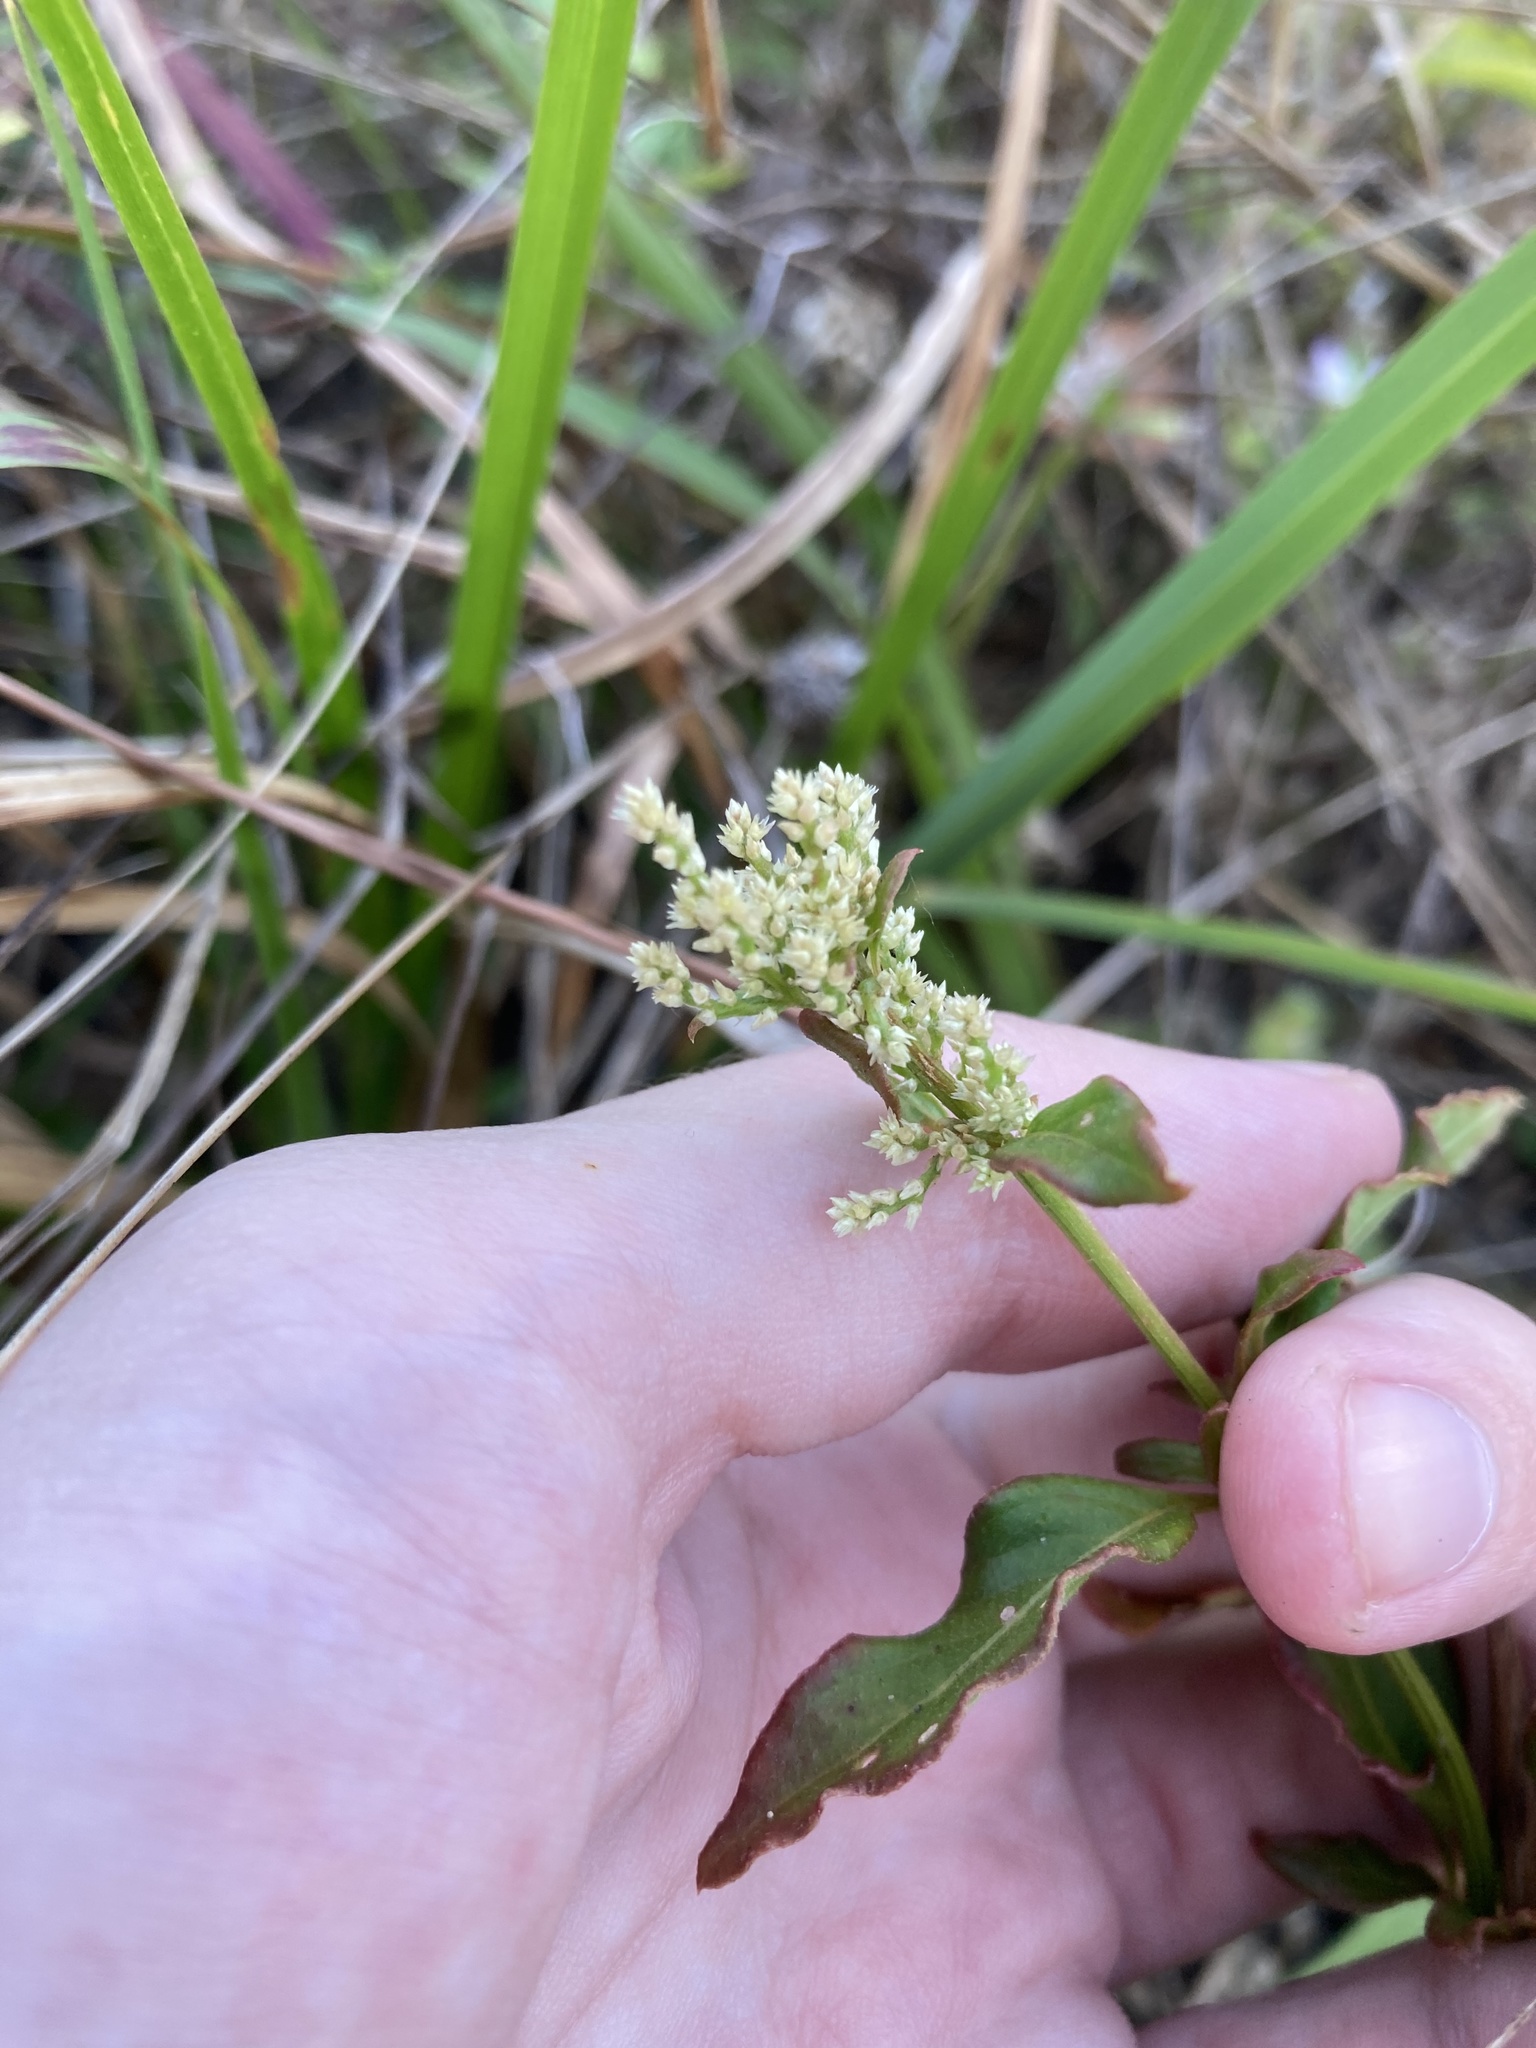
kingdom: Plantae
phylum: Tracheophyta
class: Magnoliopsida
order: Caryophyllales
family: Amaranthaceae
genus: Iresine
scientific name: Iresine diffusa
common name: Juba's-bush
